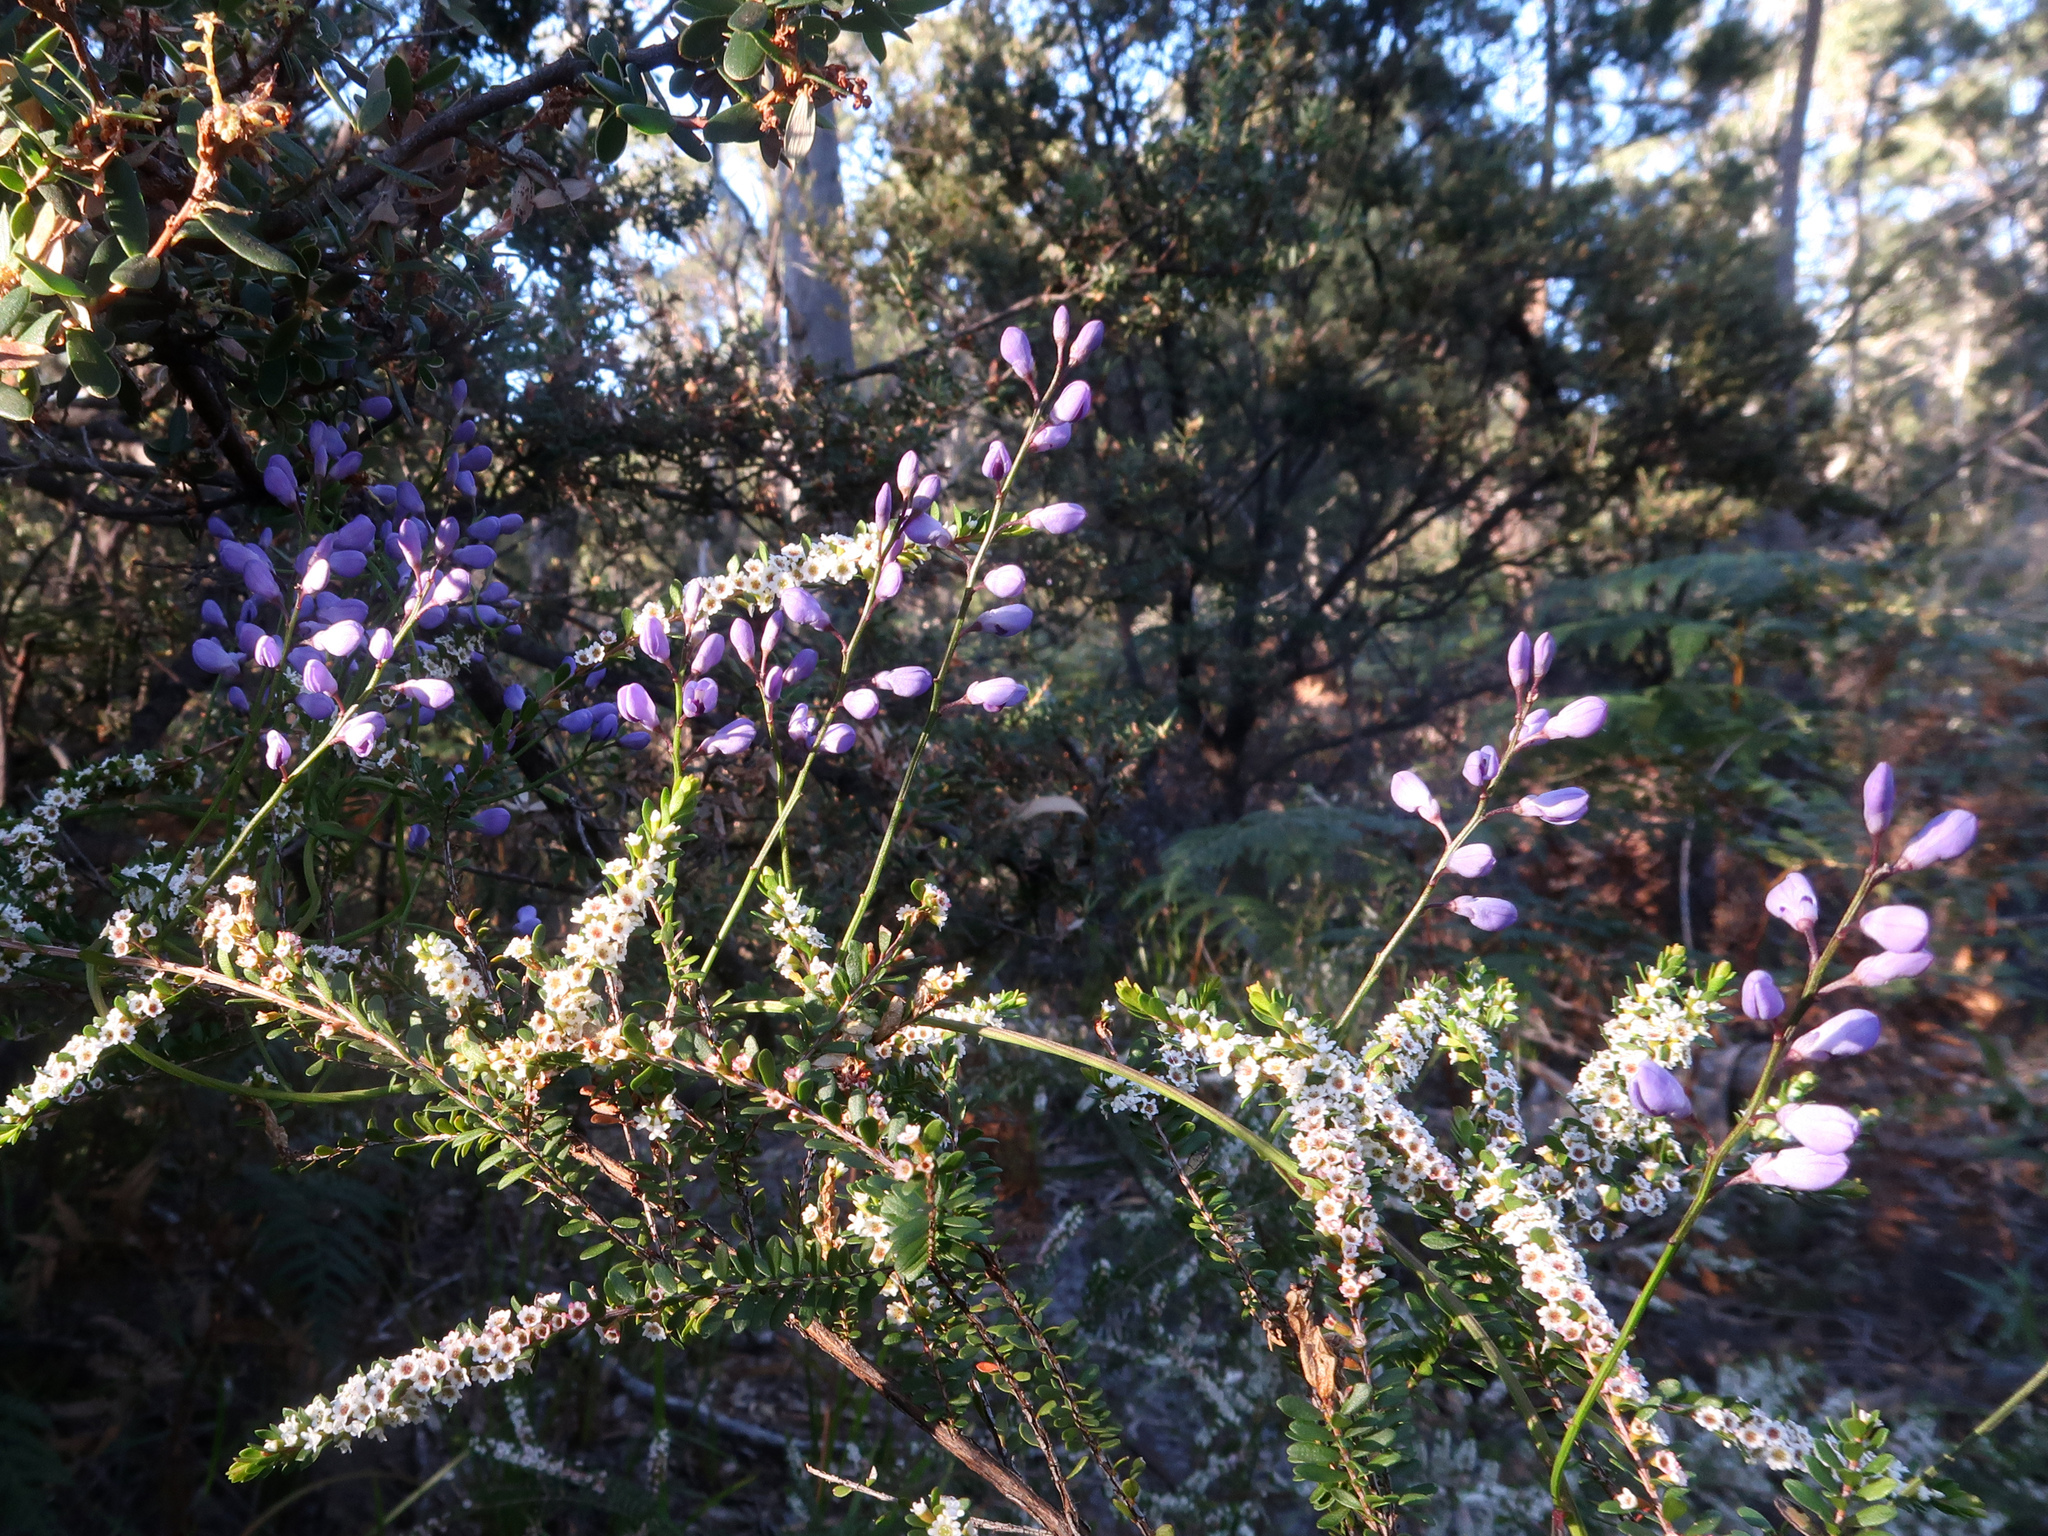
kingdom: Plantae
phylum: Tracheophyta
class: Magnoliopsida
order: Fabales
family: Polygalaceae
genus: Comesperma
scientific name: Comesperma volubile
